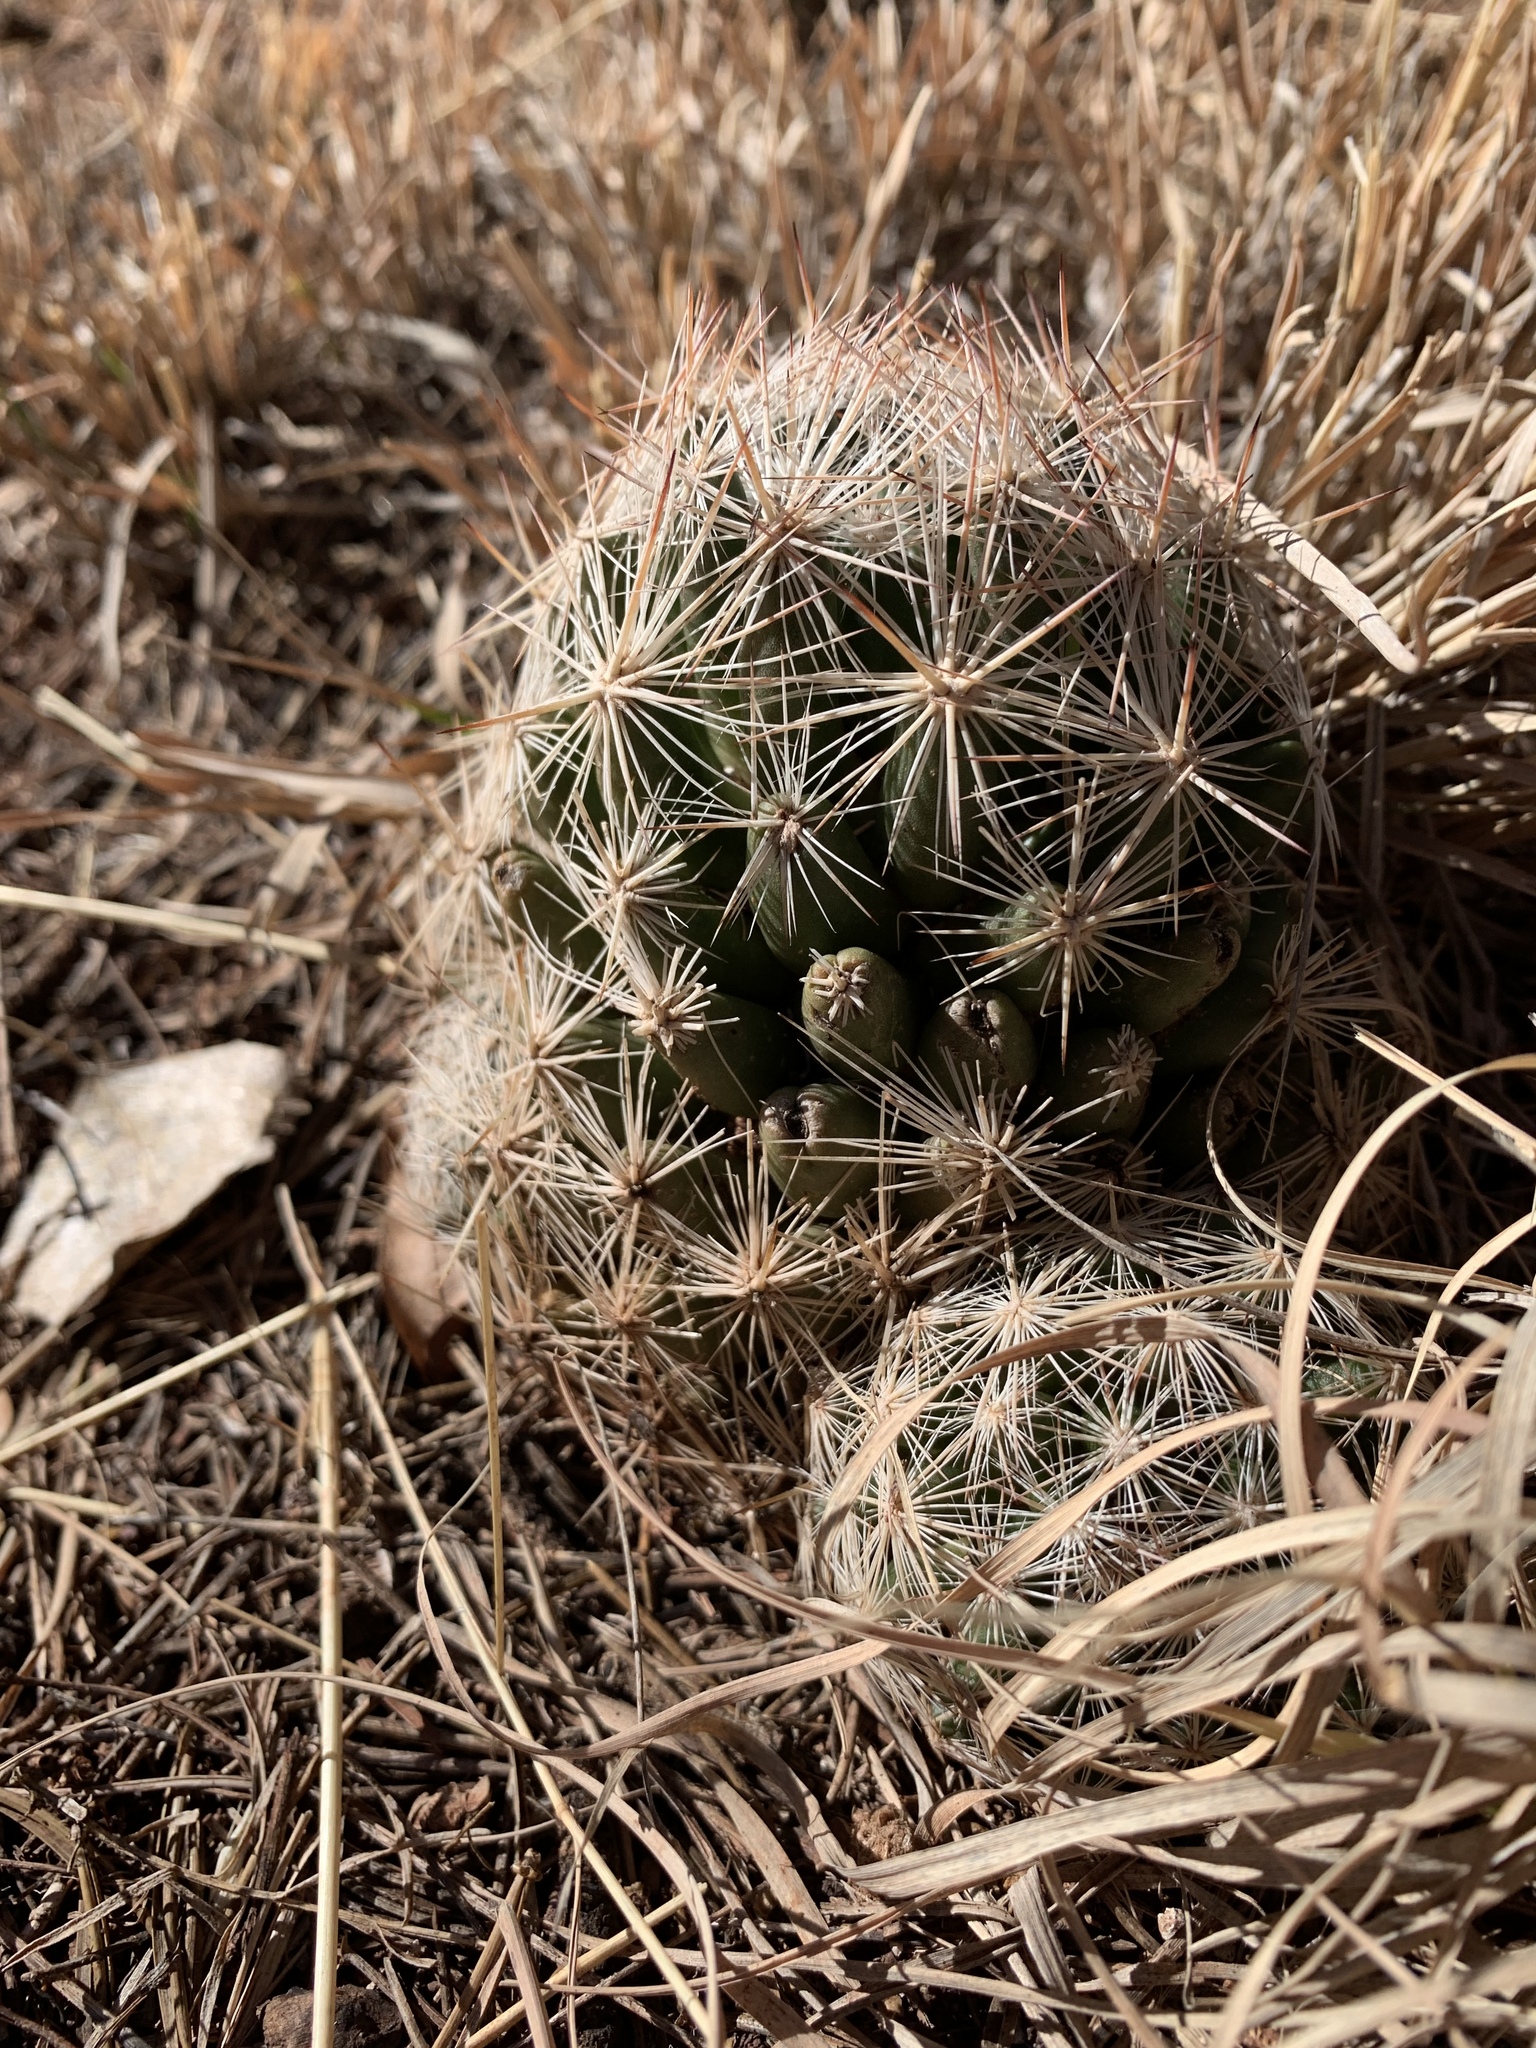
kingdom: Plantae
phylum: Tracheophyta
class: Magnoliopsida
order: Caryophyllales
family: Cactaceae
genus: Pelecyphora
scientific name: Pelecyphora vivipara
